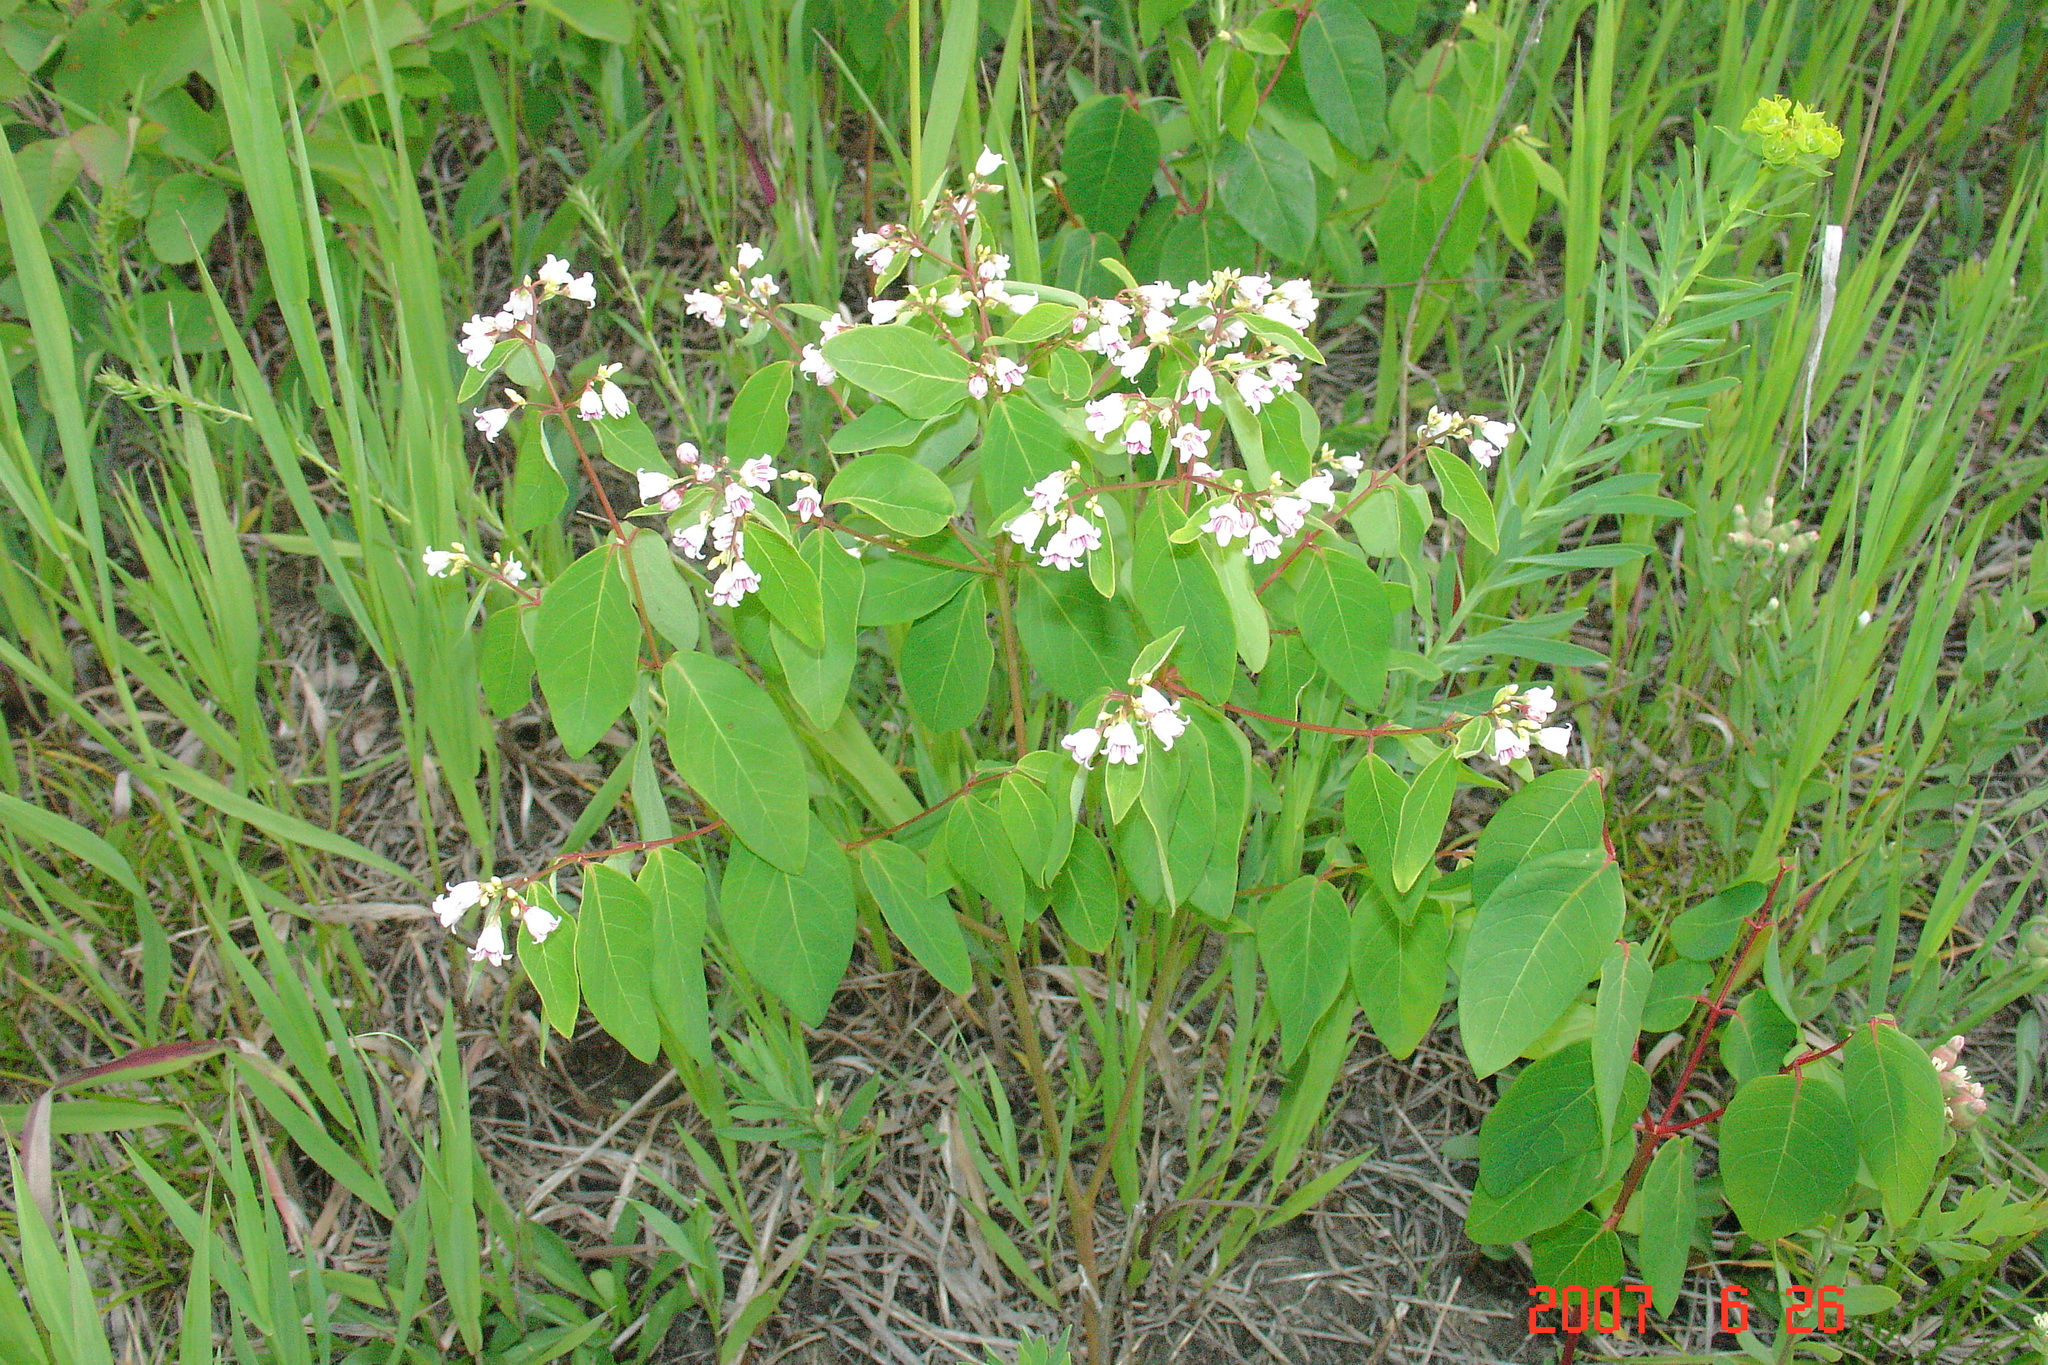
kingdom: Plantae
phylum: Tracheophyta
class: Magnoliopsida
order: Gentianales
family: Apocynaceae
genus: Apocynum
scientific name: Apocynum androsaemifolium
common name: Spreading dogbane
